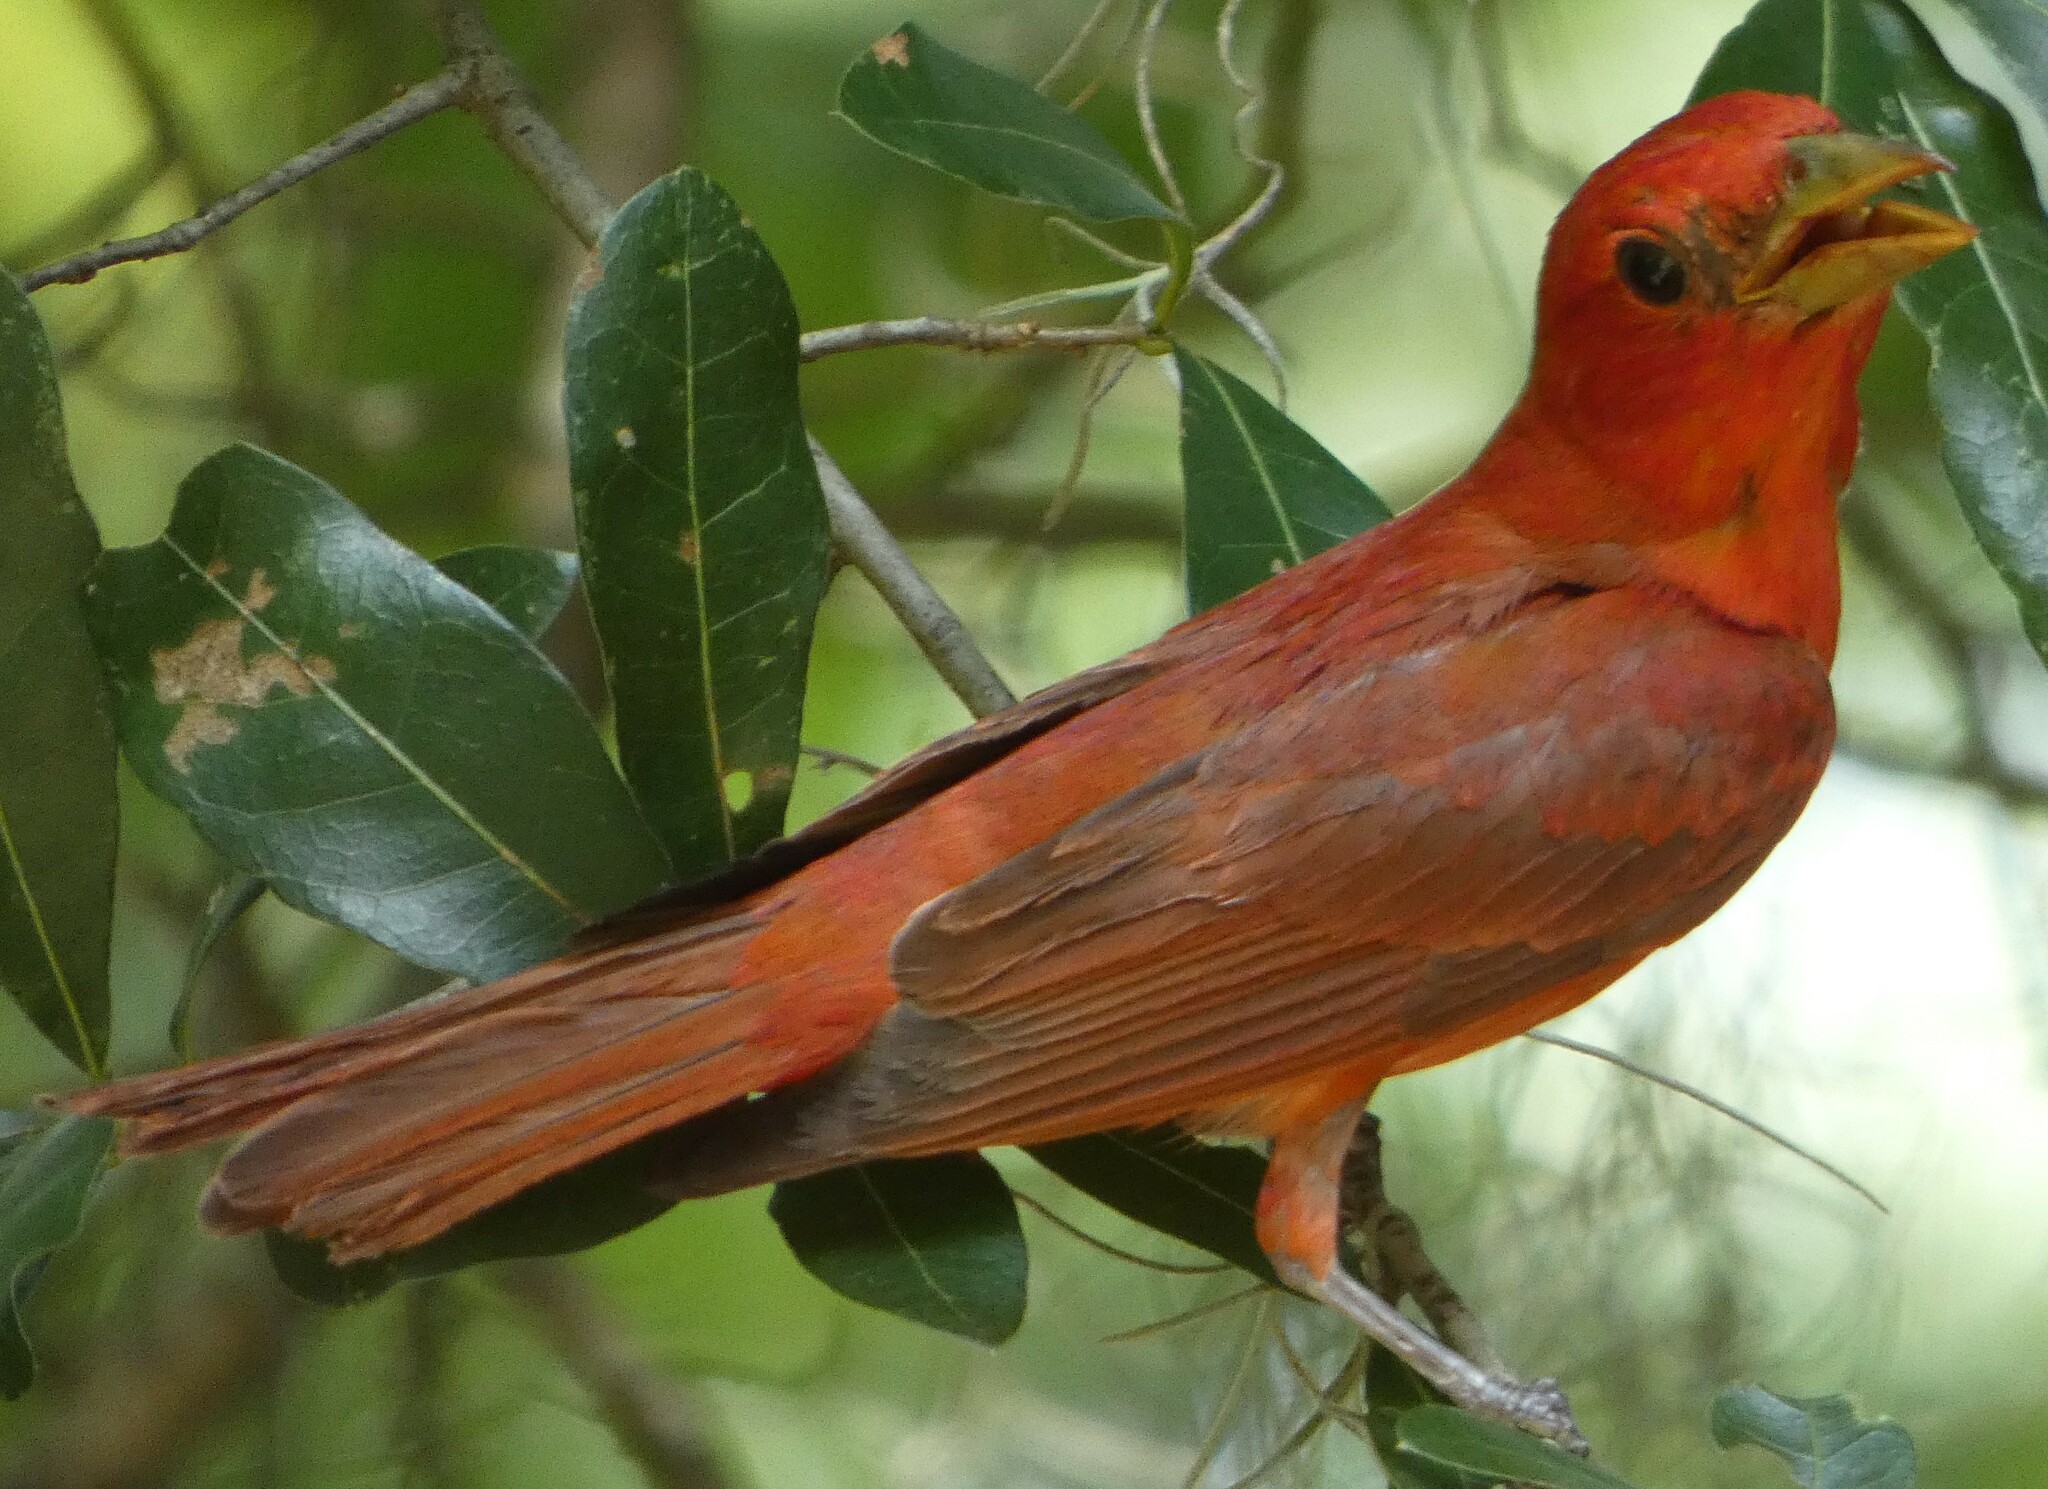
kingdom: Animalia
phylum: Chordata
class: Aves
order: Passeriformes
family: Cardinalidae
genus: Piranga
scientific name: Piranga rubra
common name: Summer tanager
